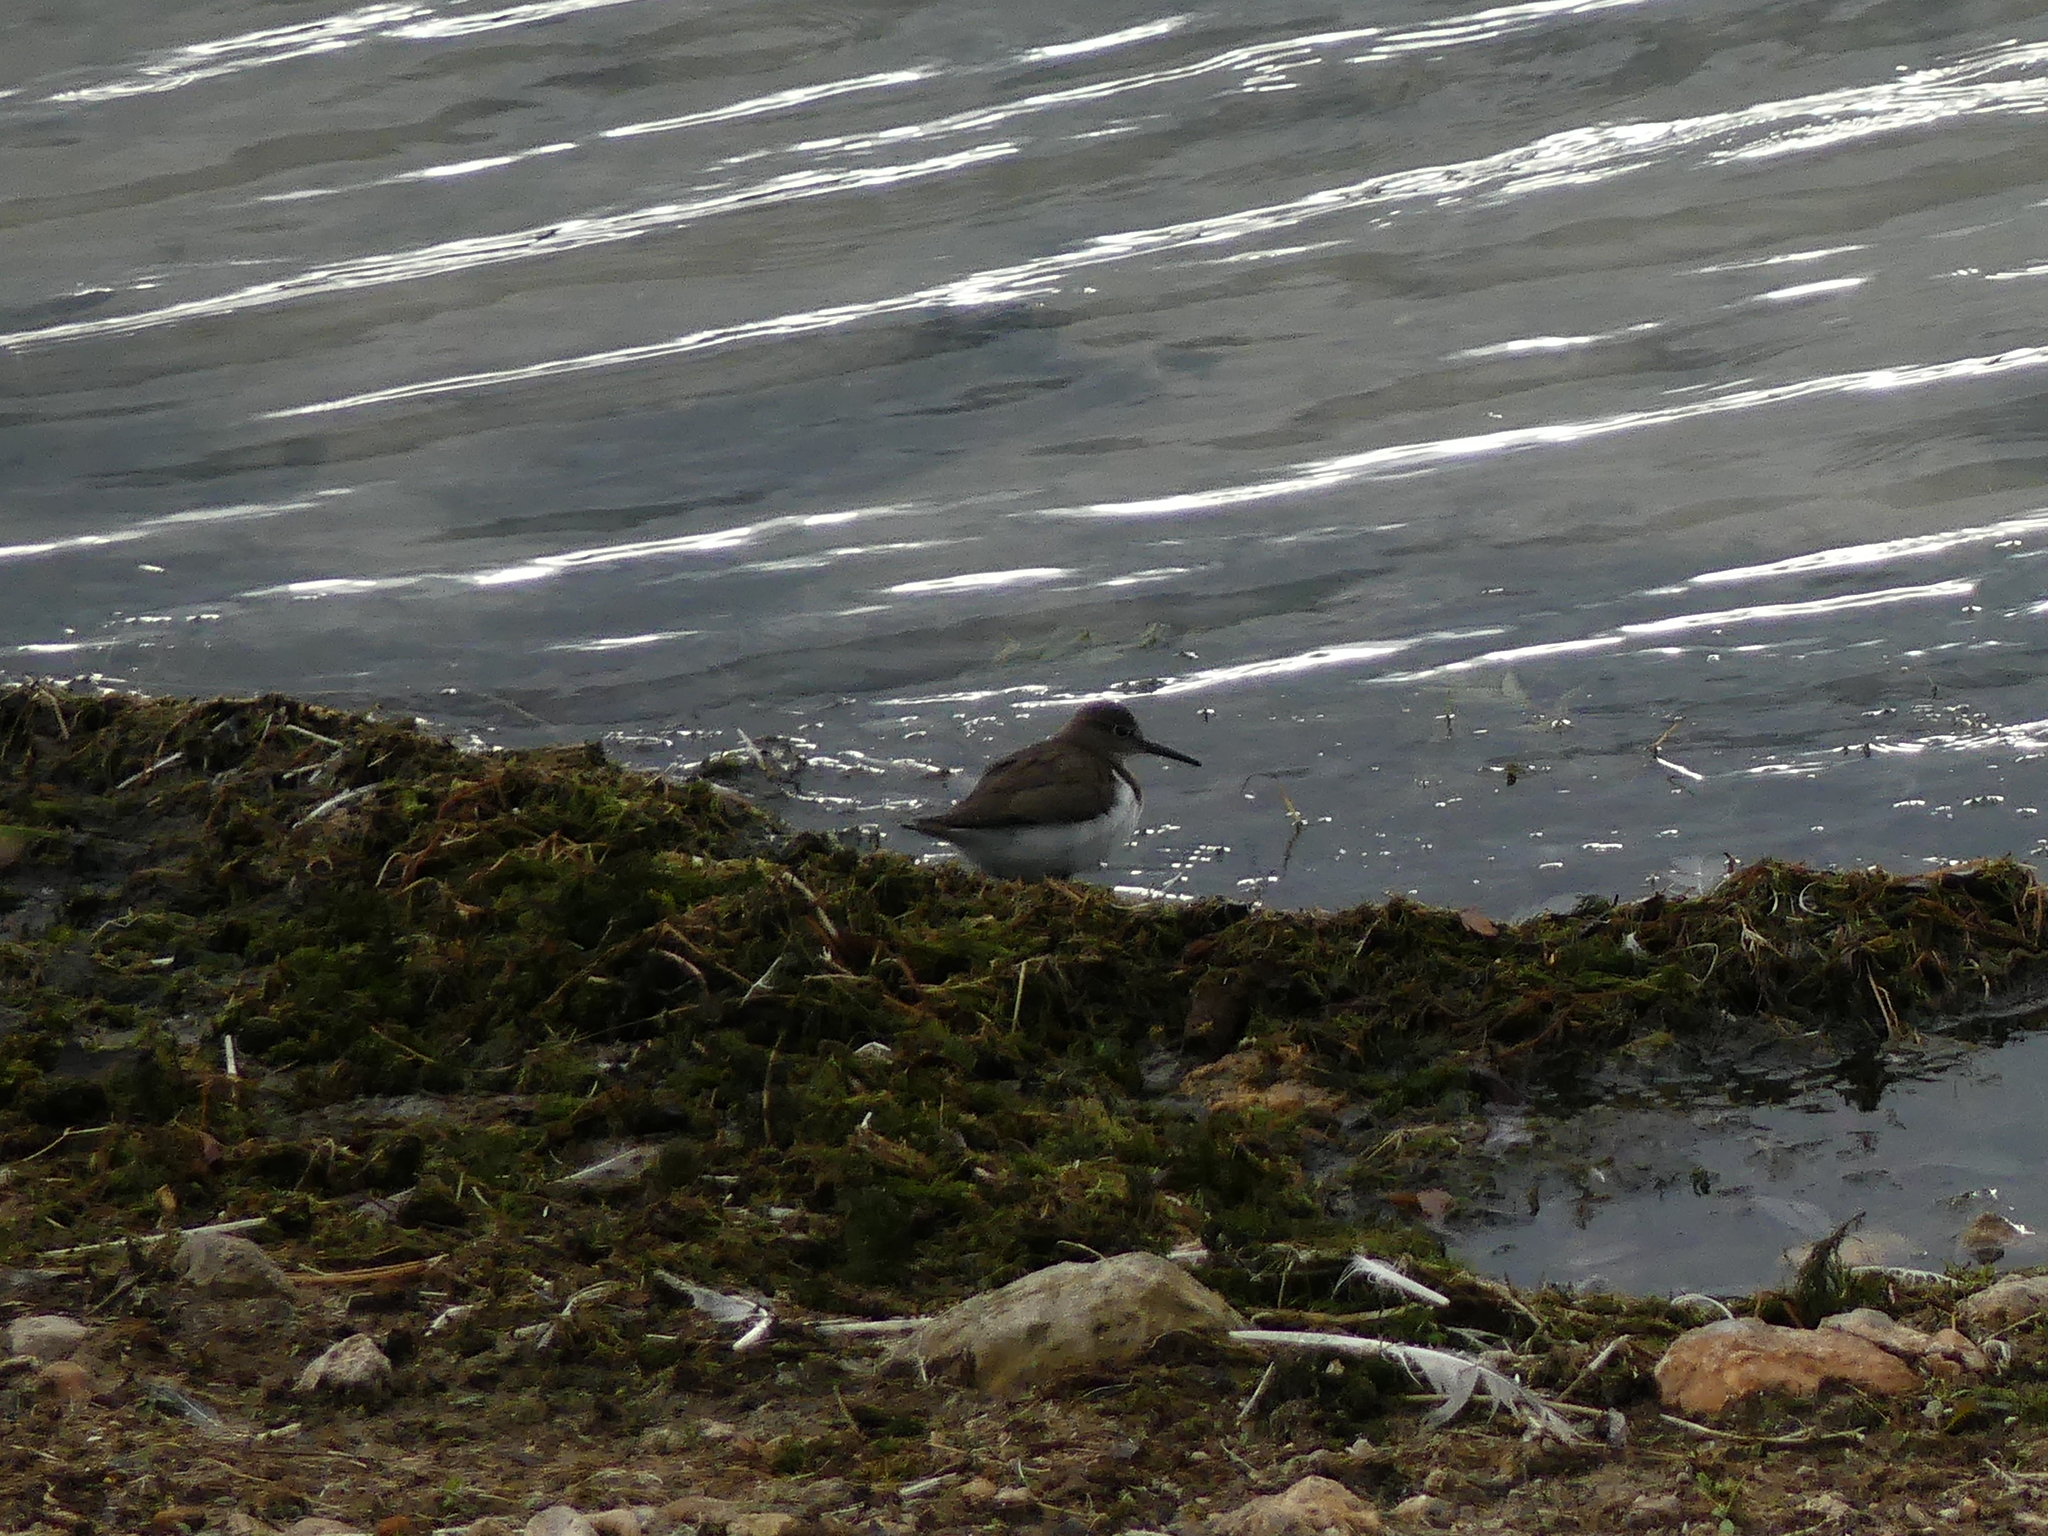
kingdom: Animalia
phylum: Chordata
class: Aves
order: Charadriiformes
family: Scolopacidae
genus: Actitis
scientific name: Actitis hypoleucos
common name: Common sandpiper
